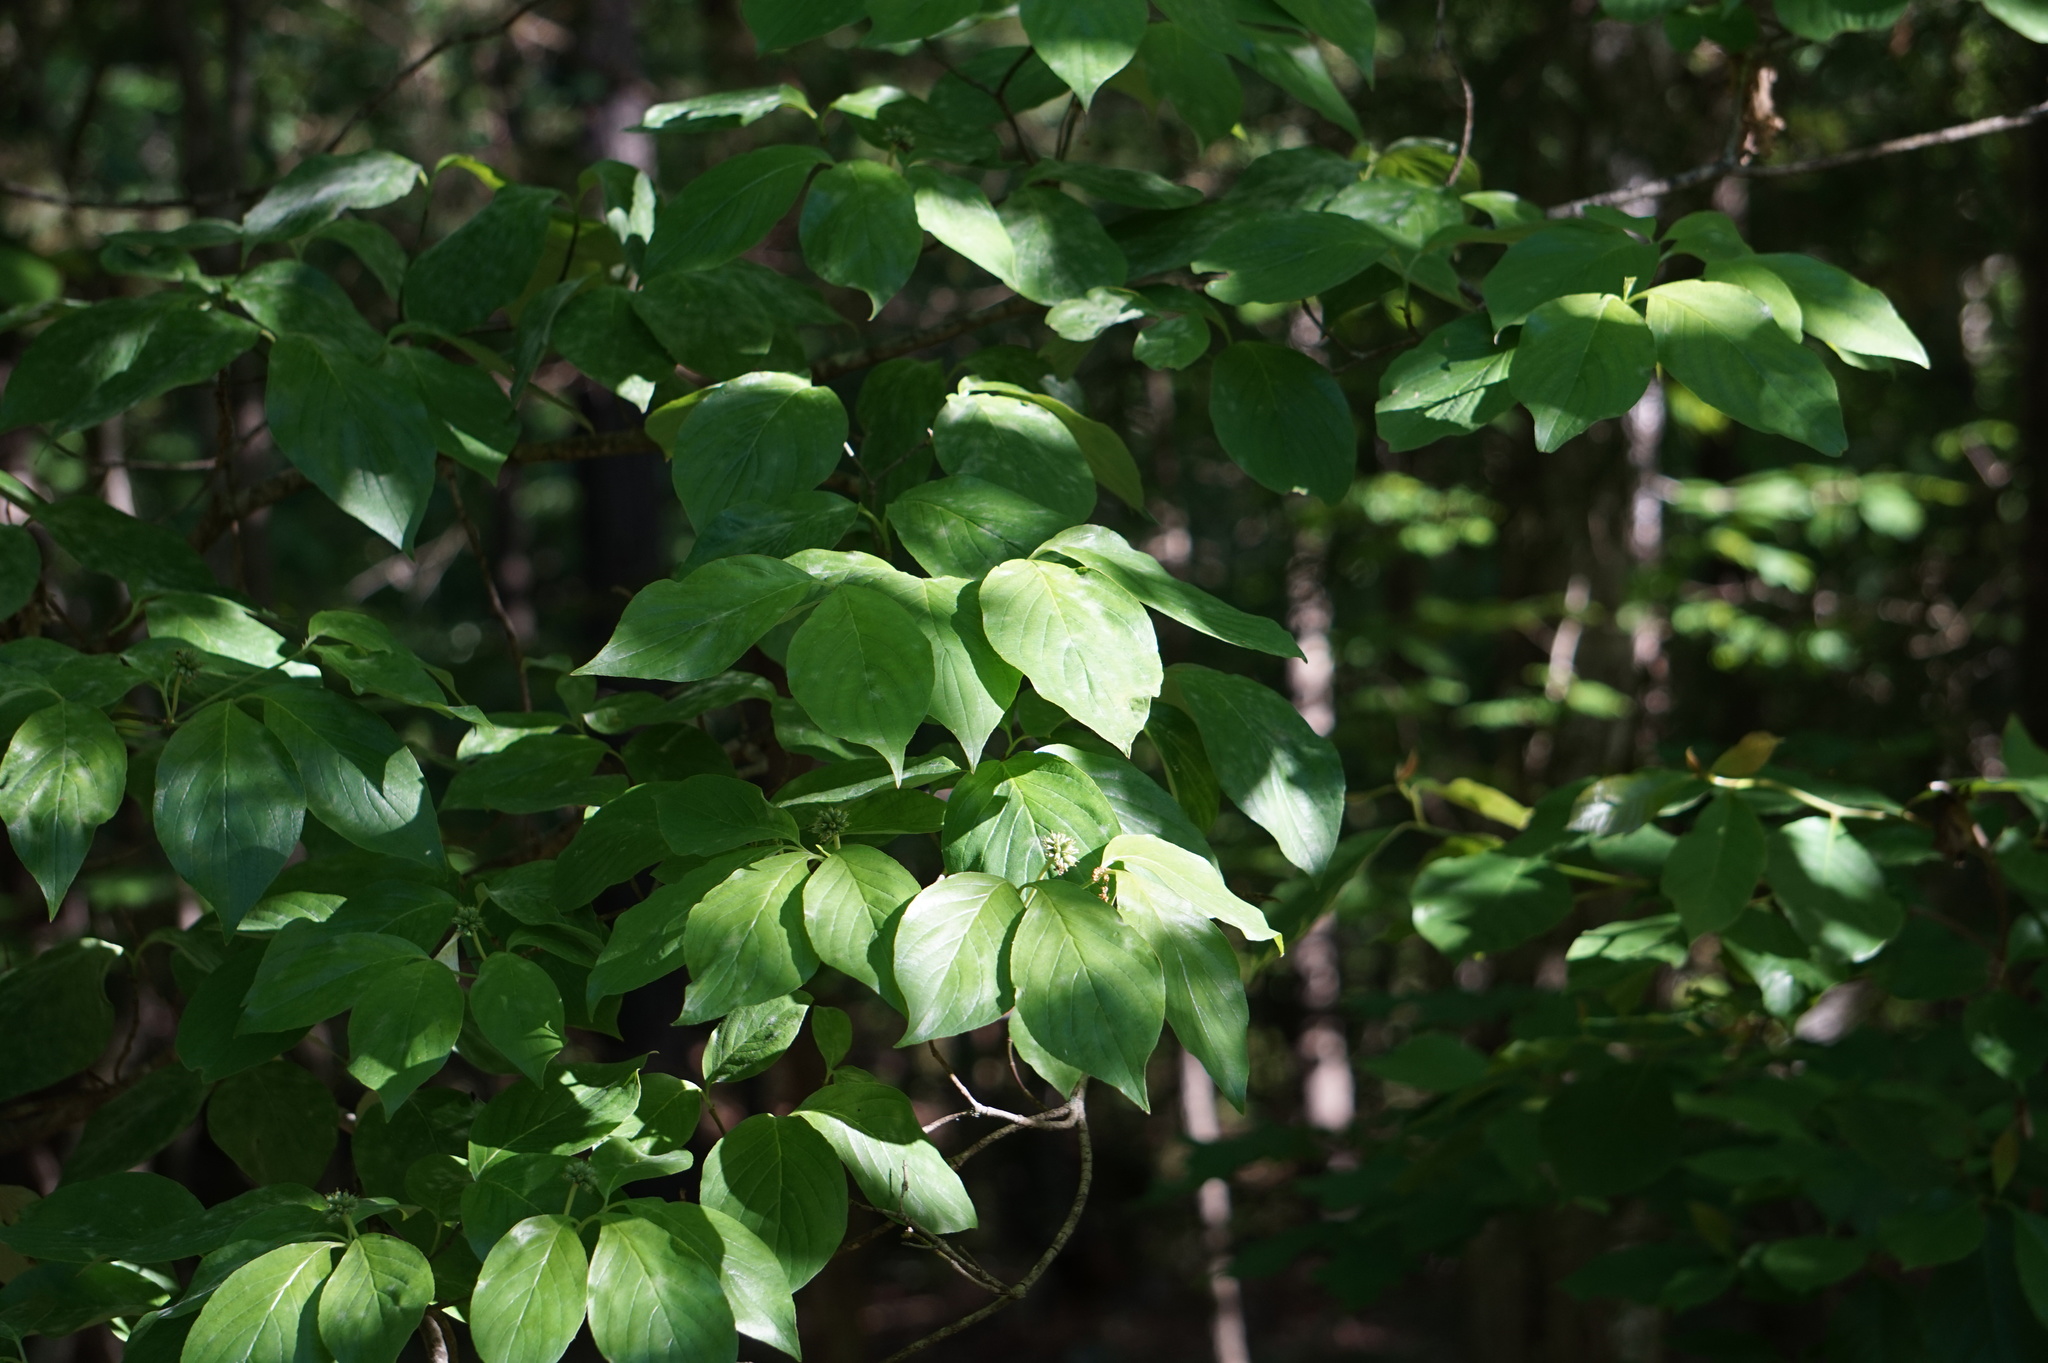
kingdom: Plantae
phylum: Tracheophyta
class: Magnoliopsida
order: Cornales
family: Cornaceae
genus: Cornus
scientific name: Cornus florida
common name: Flowering dogwood
